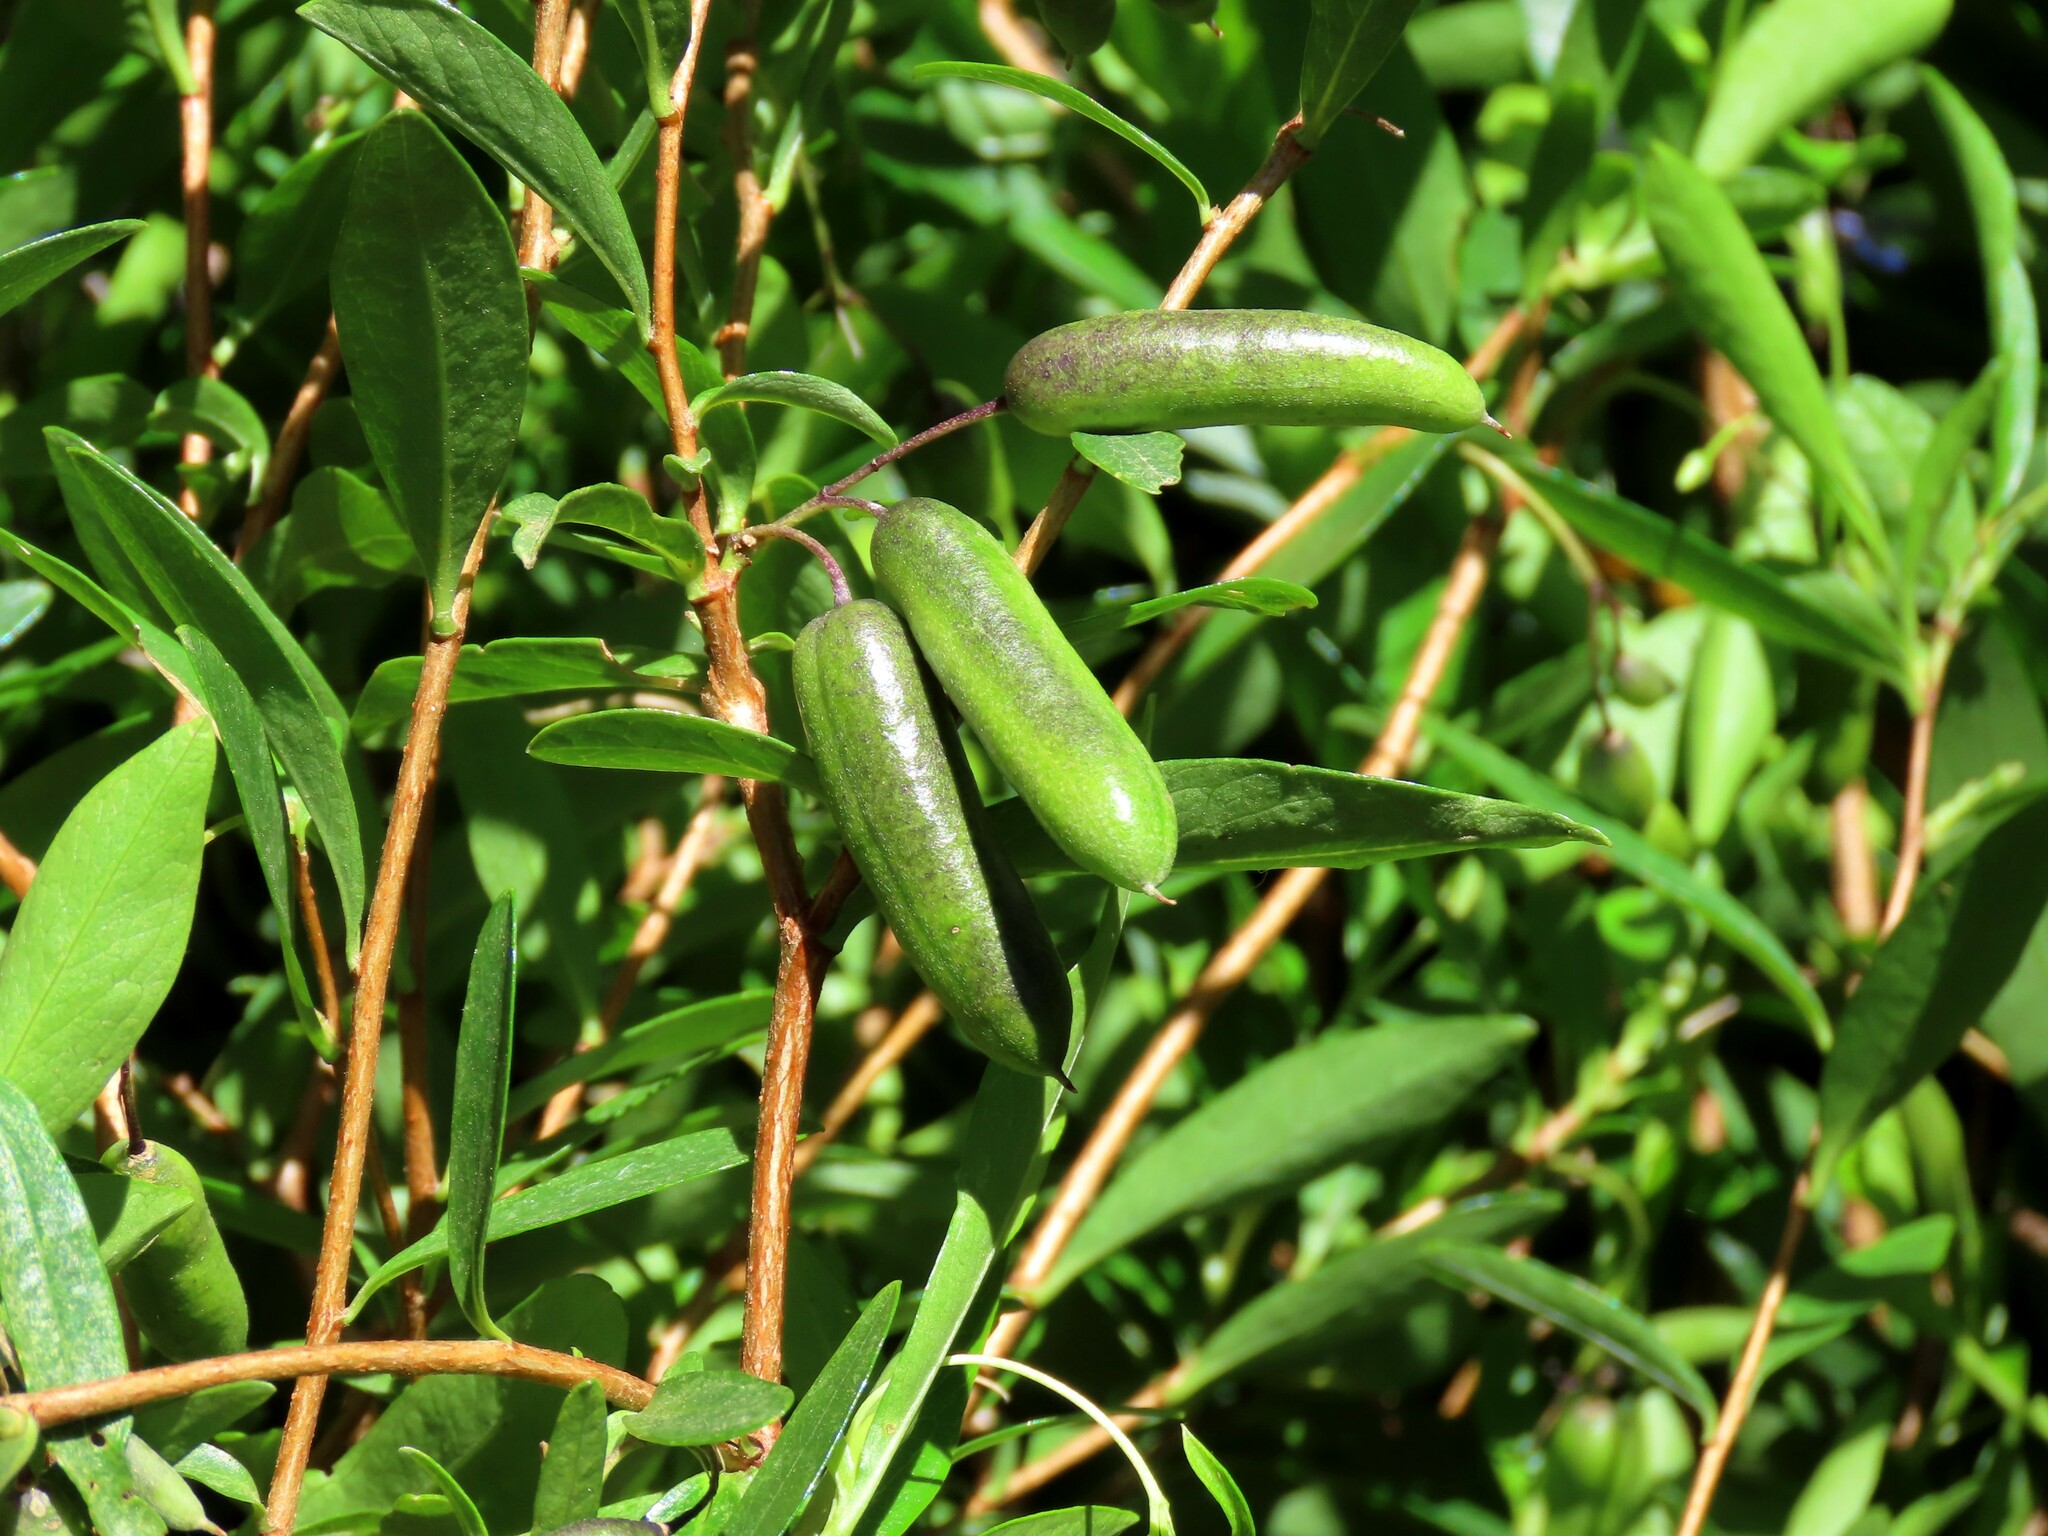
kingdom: Plantae
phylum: Tracheophyta
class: Magnoliopsida
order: Apiales
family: Pittosporaceae
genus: Billardiera
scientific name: Billardiera fusiformis
